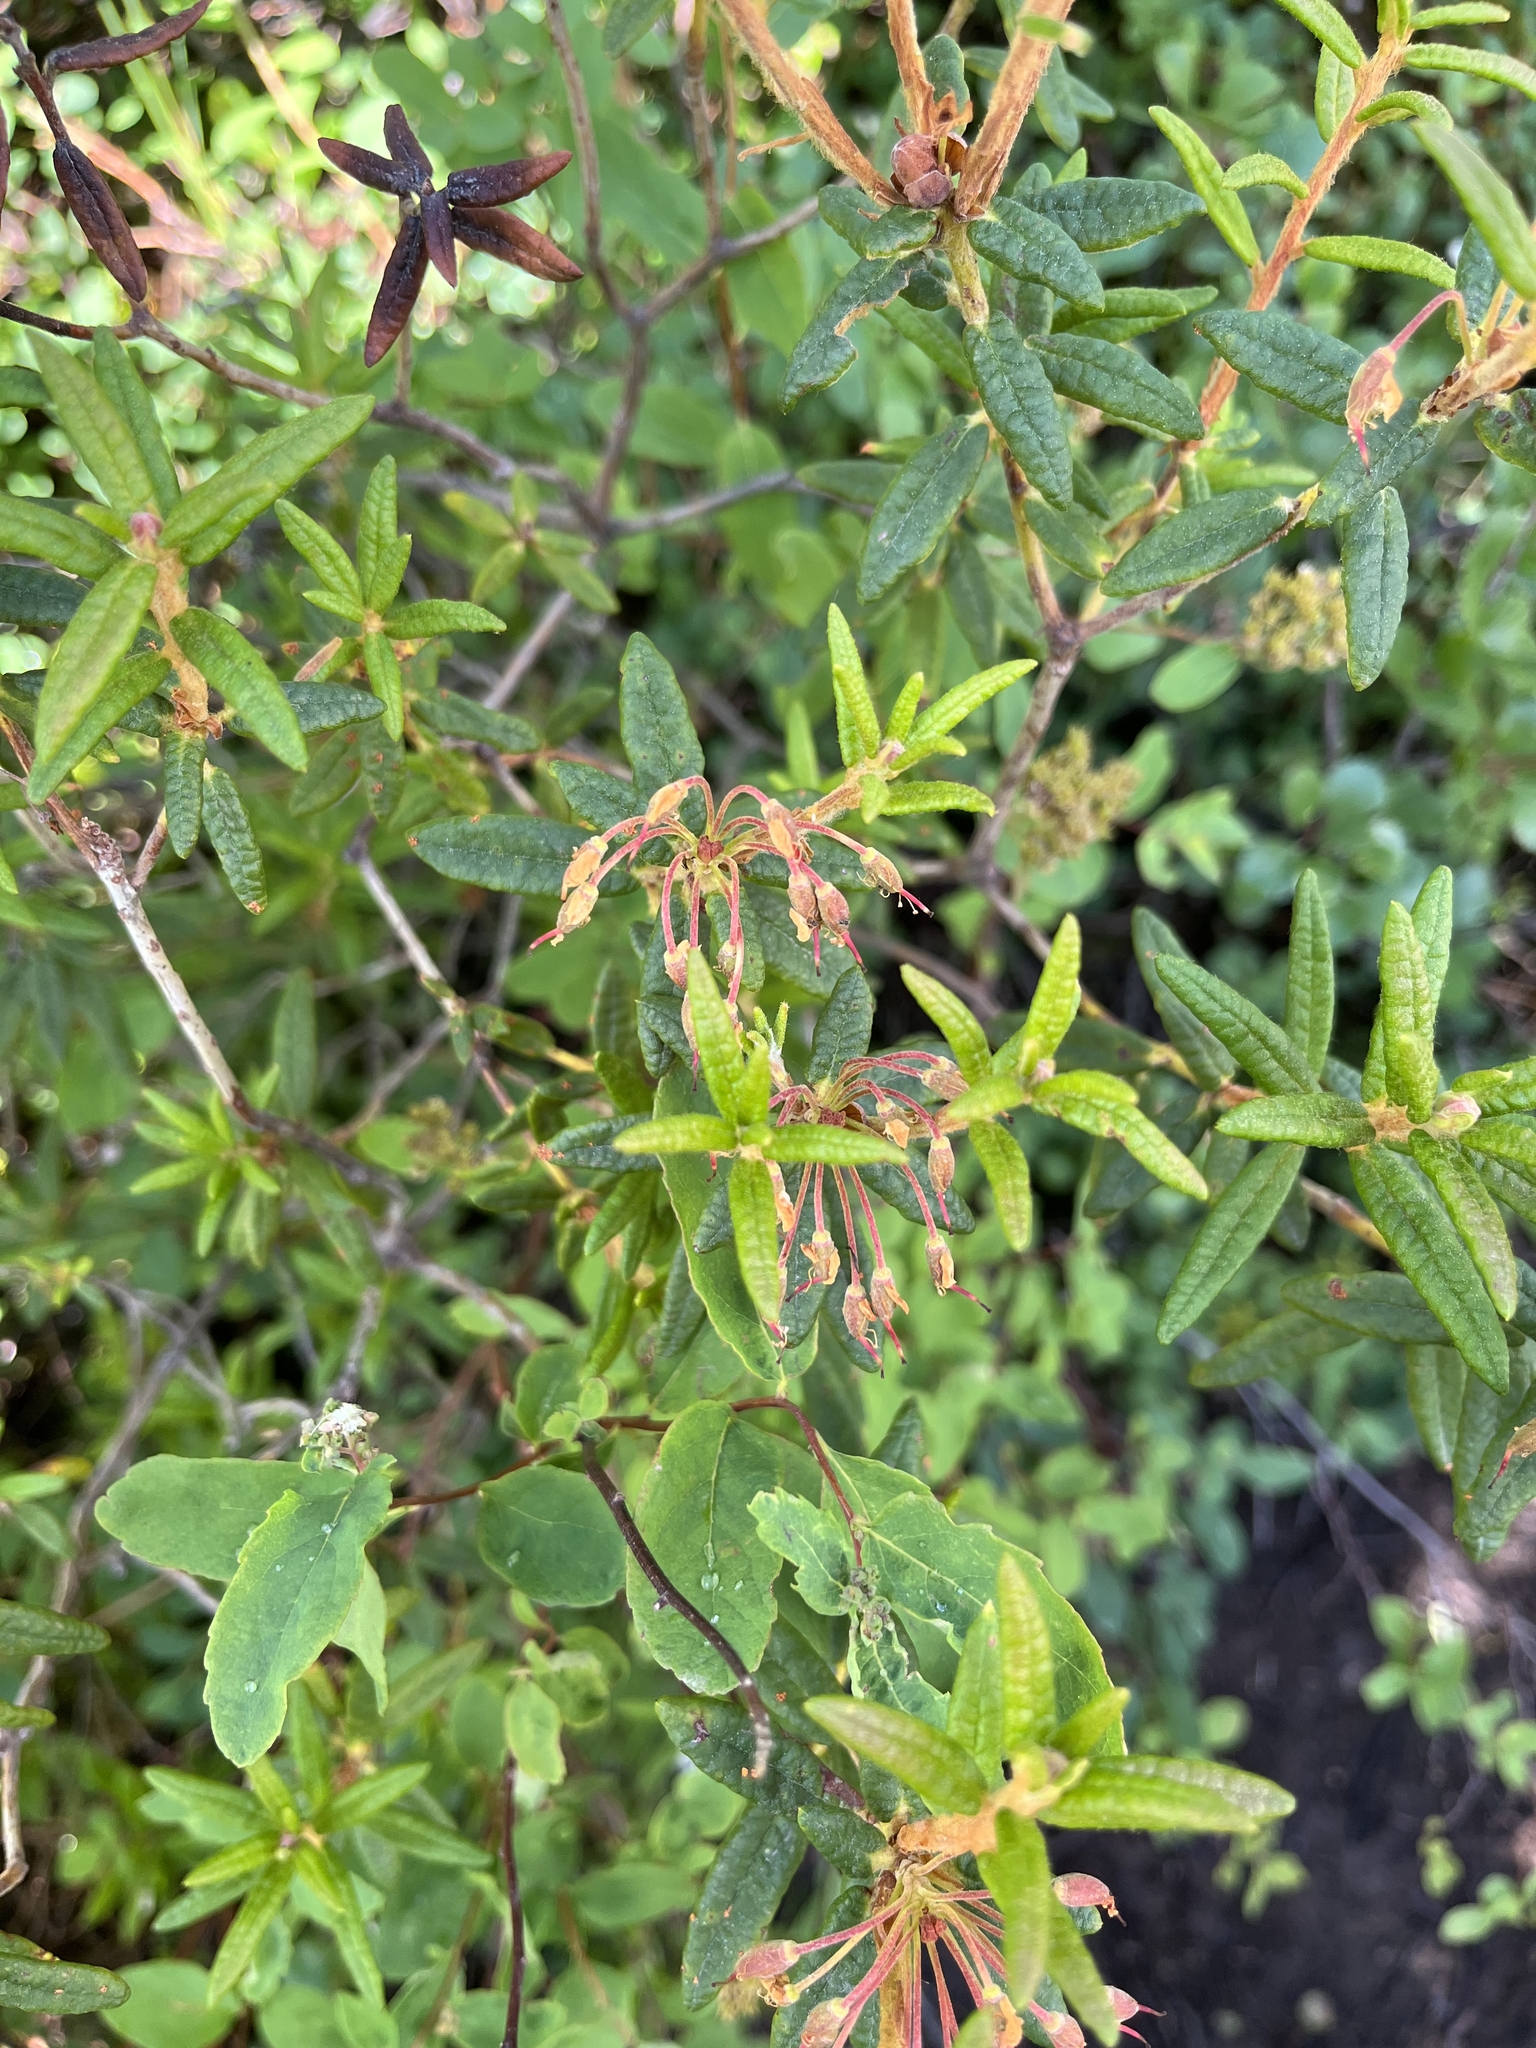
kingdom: Plantae
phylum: Tracheophyta
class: Magnoliopsida
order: Ericales
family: Ericaceae
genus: Rhododendron
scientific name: Rhododendron groenlandicum
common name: Bog labrador tea
